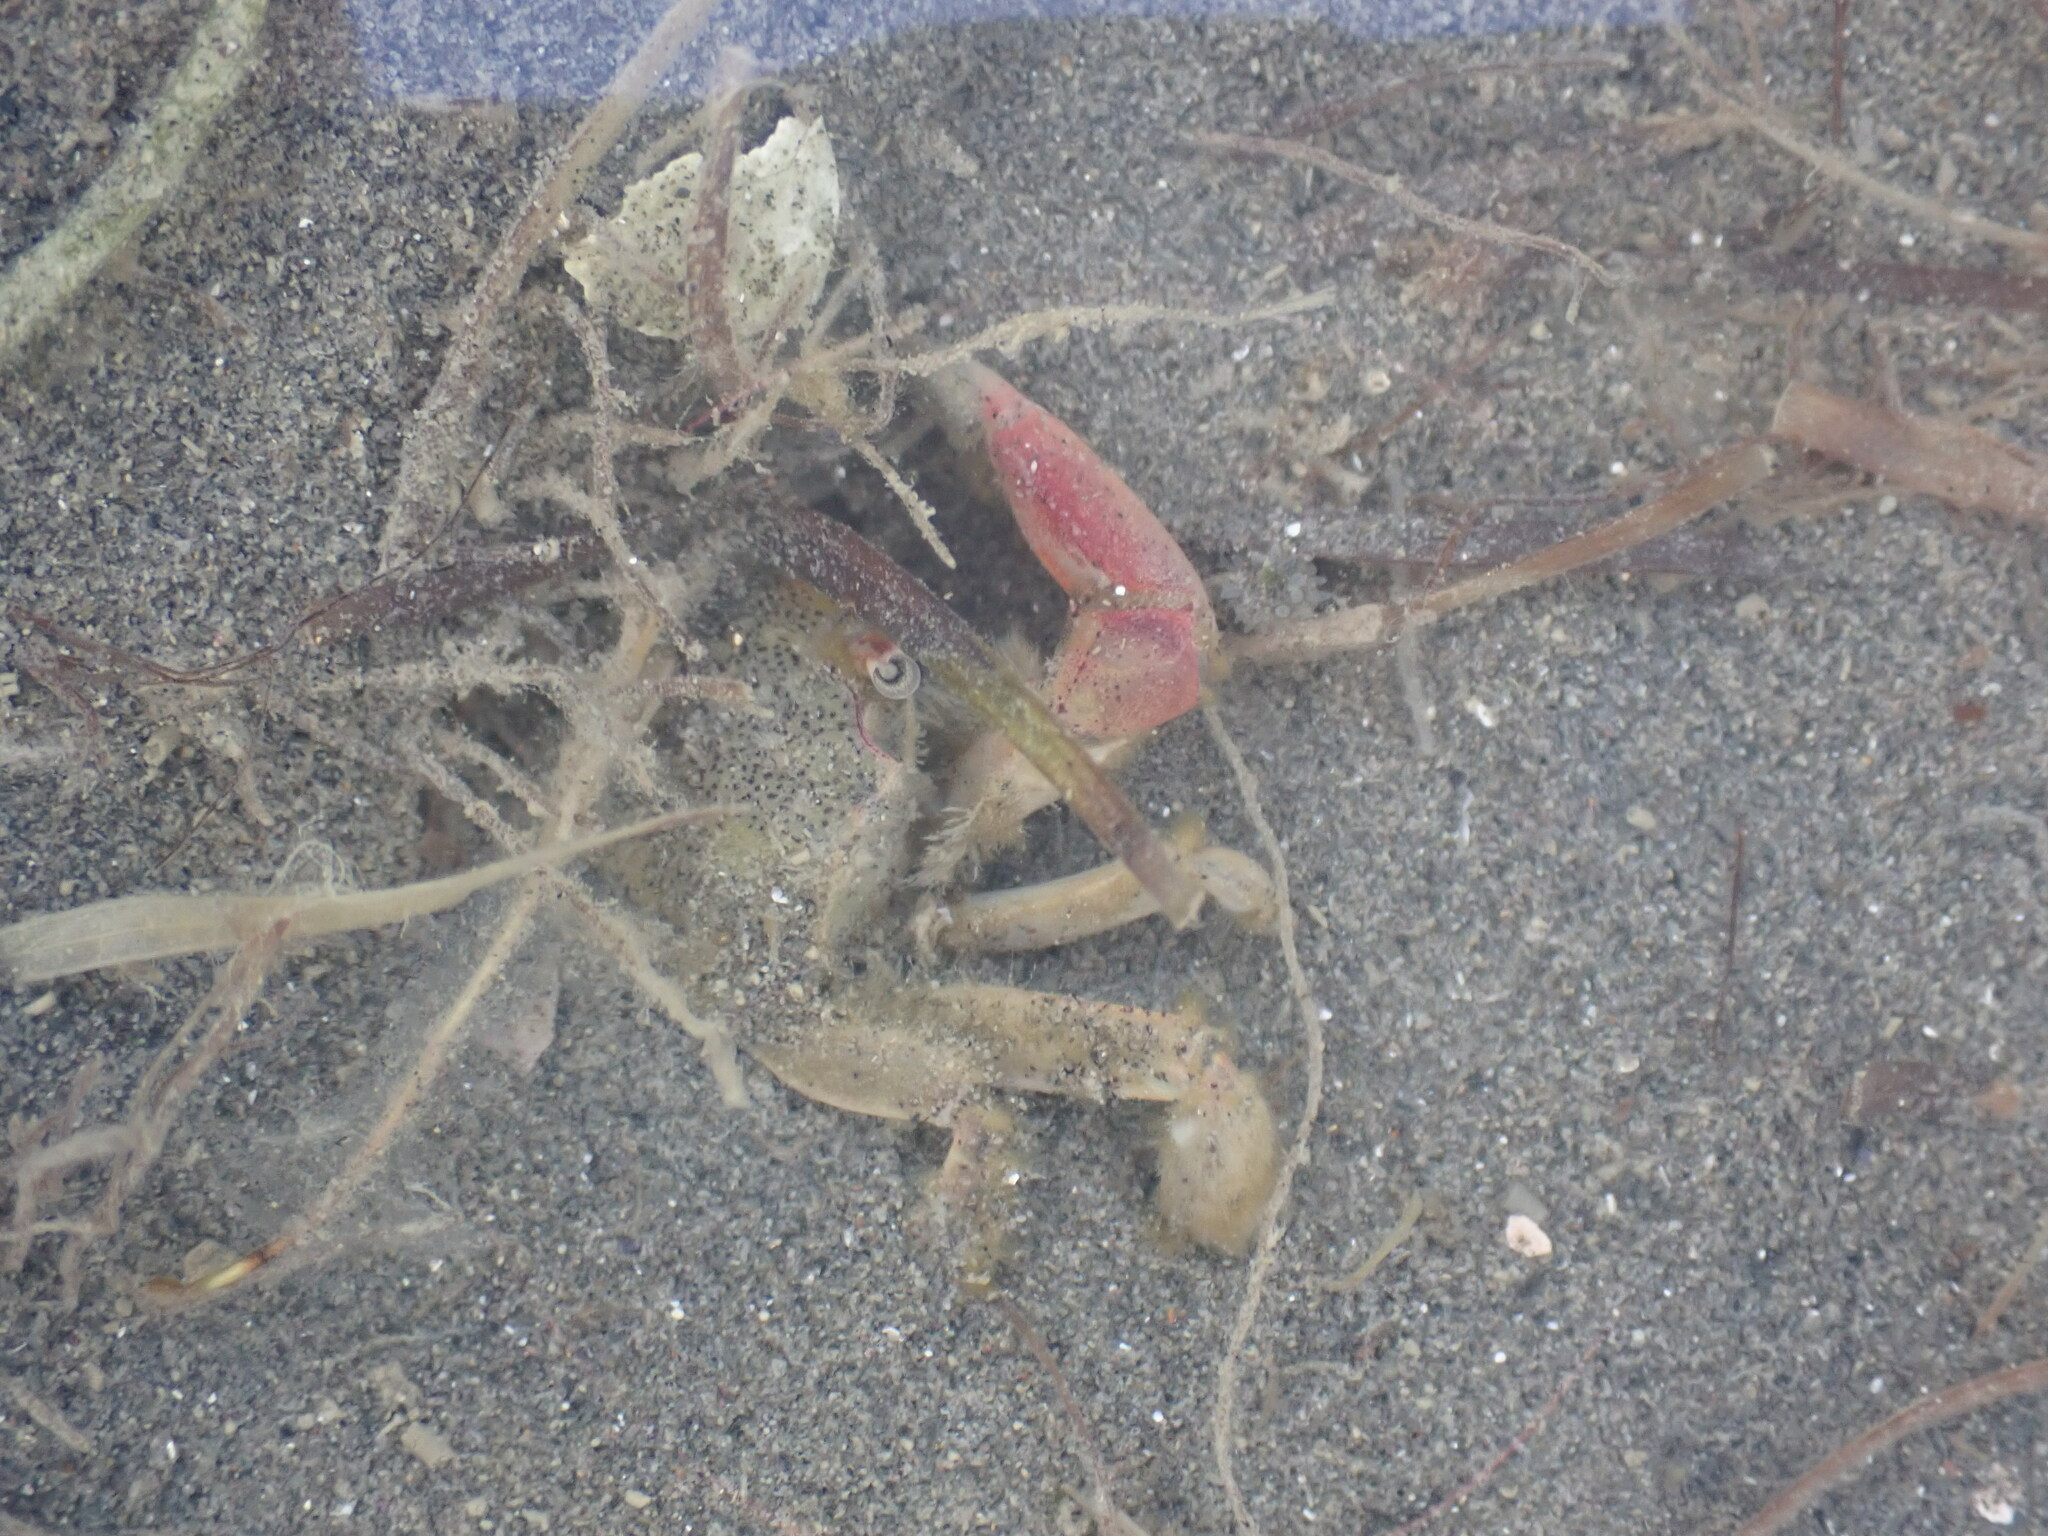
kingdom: Animalia
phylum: Arthropoda
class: Malacostraca
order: Decapoda
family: Macrophthalmidae
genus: Hemiplax
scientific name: Hemiplax hirtipes
